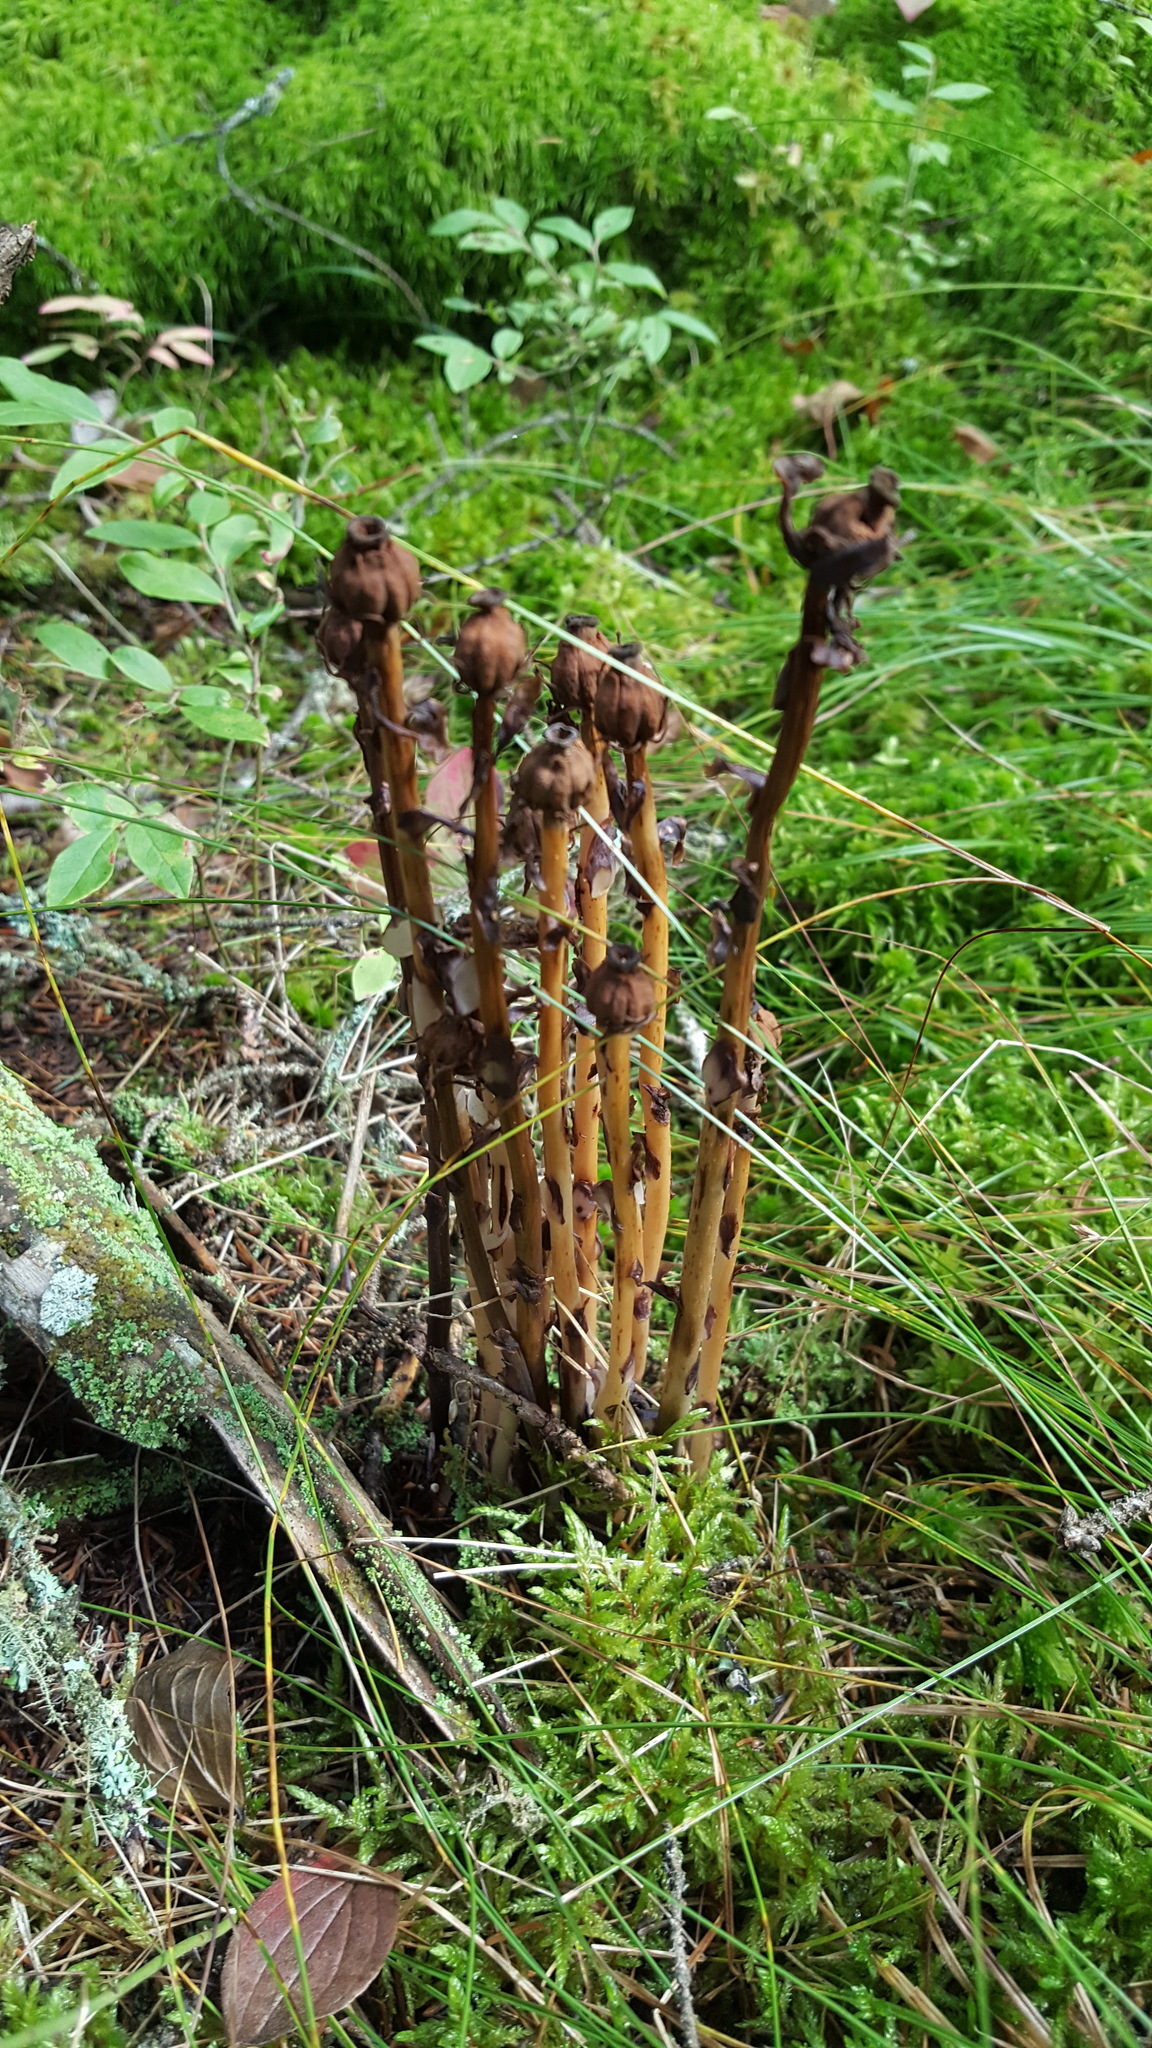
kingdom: Plantae
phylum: Tracheophyta
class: Magnoliopsida
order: Ericales
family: Ericaceae
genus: Monotropa
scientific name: Monotropa uniflora
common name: Convulsion root
